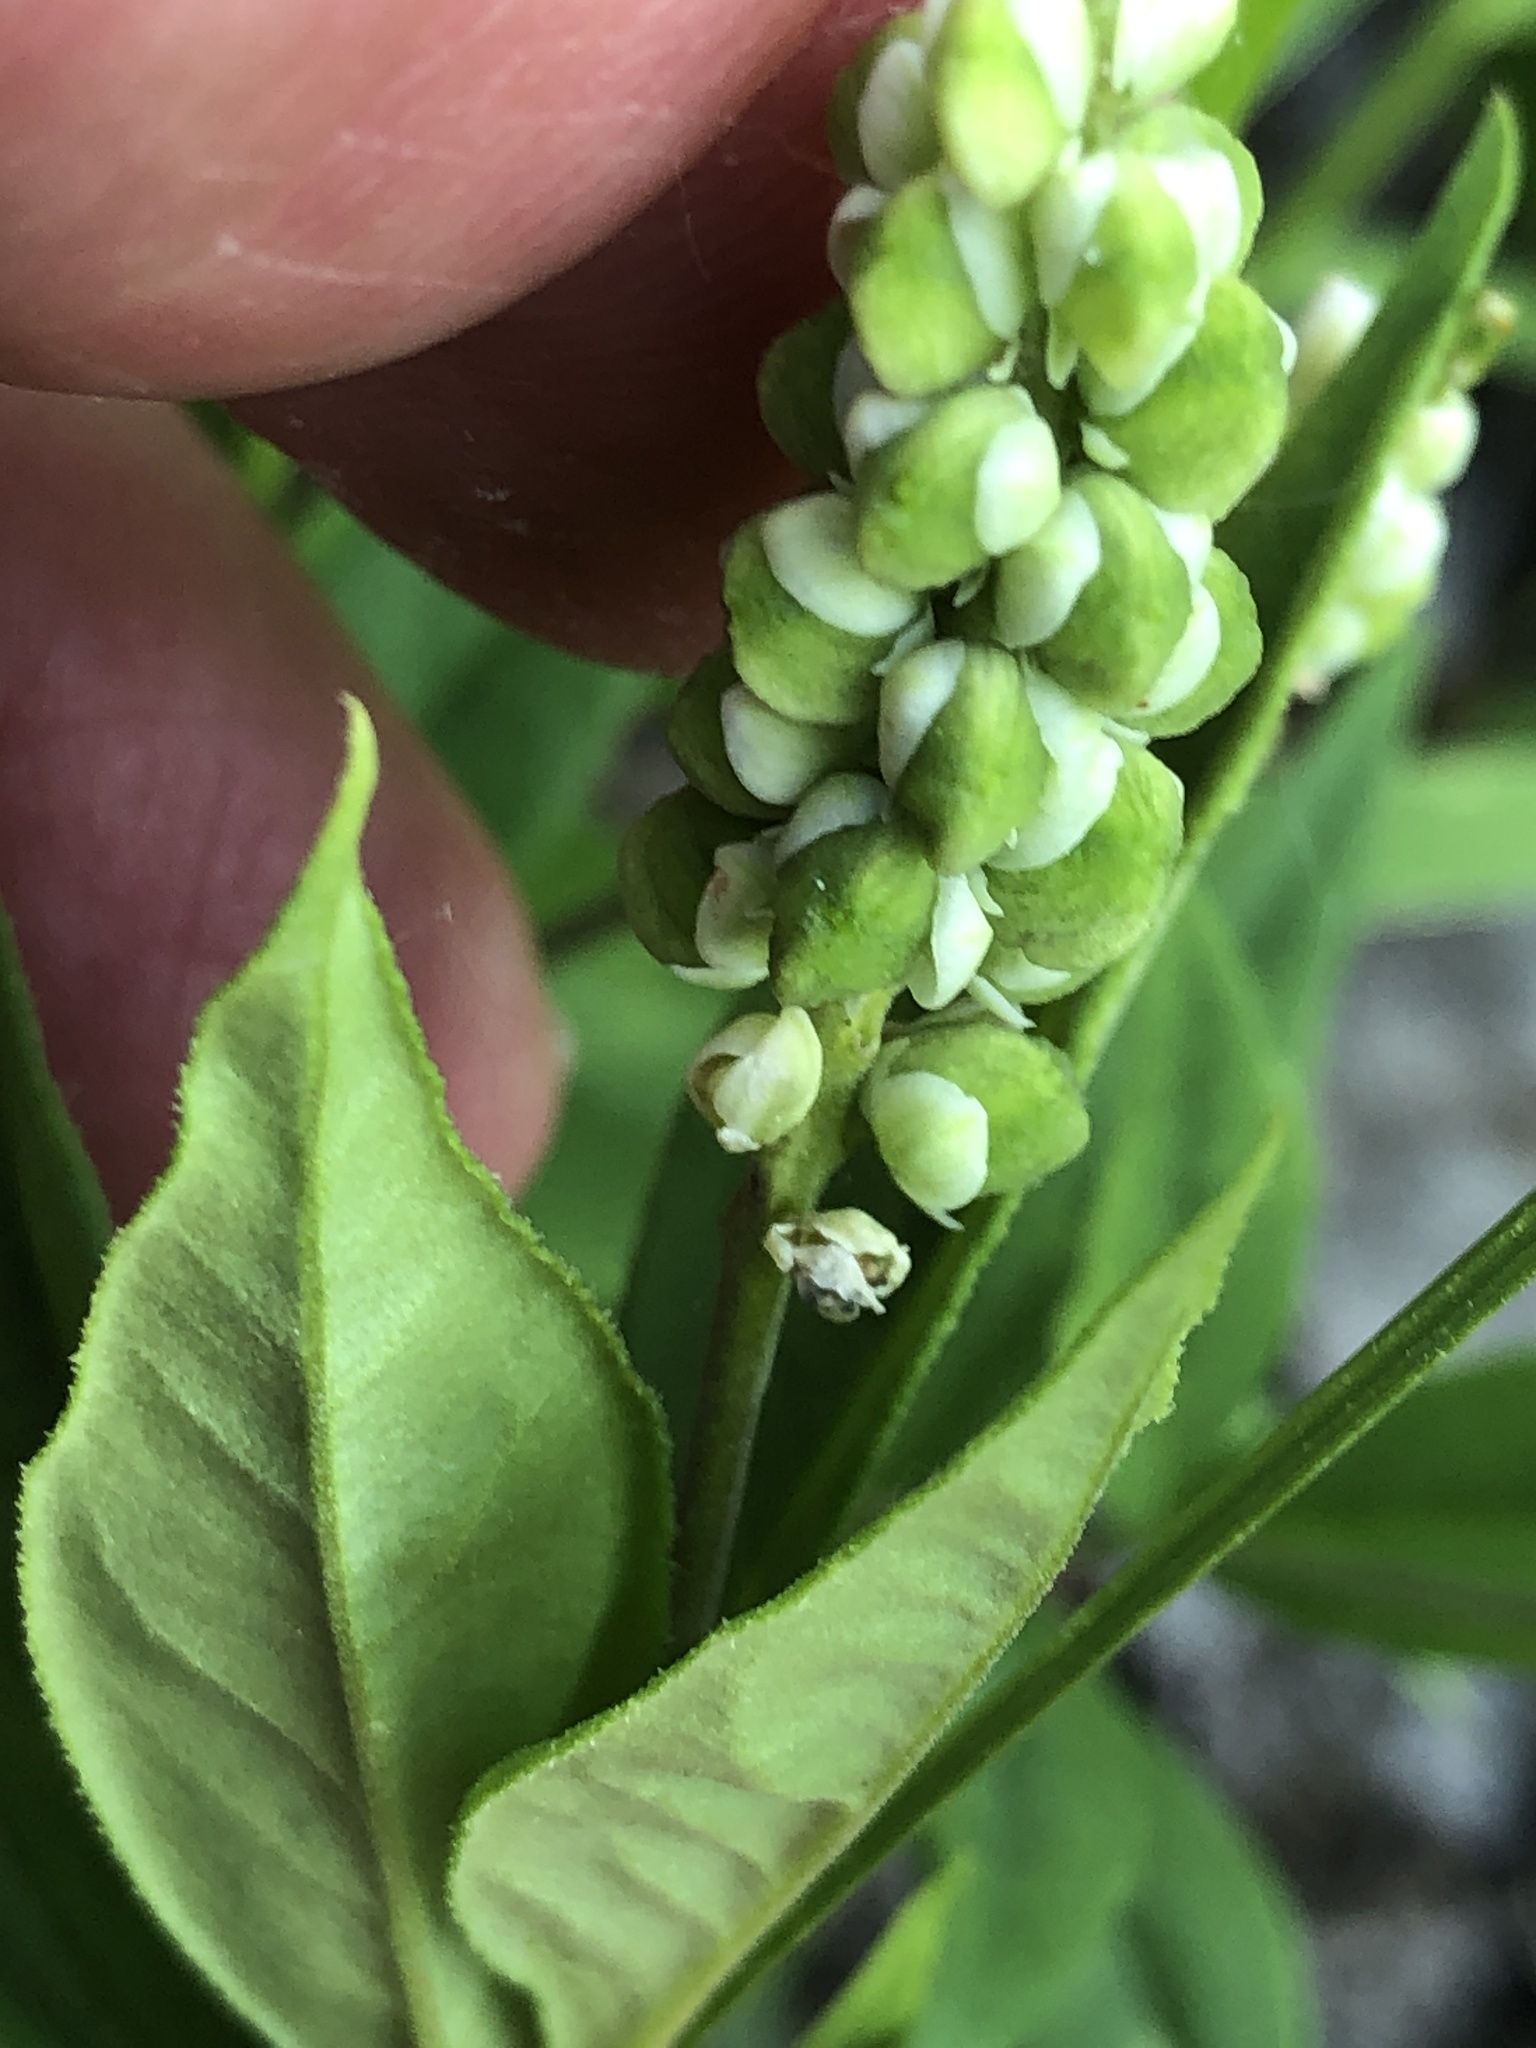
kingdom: Plantae
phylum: Tracheophyta
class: Magnoliopsida
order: Fabales
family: Polygalaceae
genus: Polygala
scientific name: Polygala senega
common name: Seneca snakeroot
